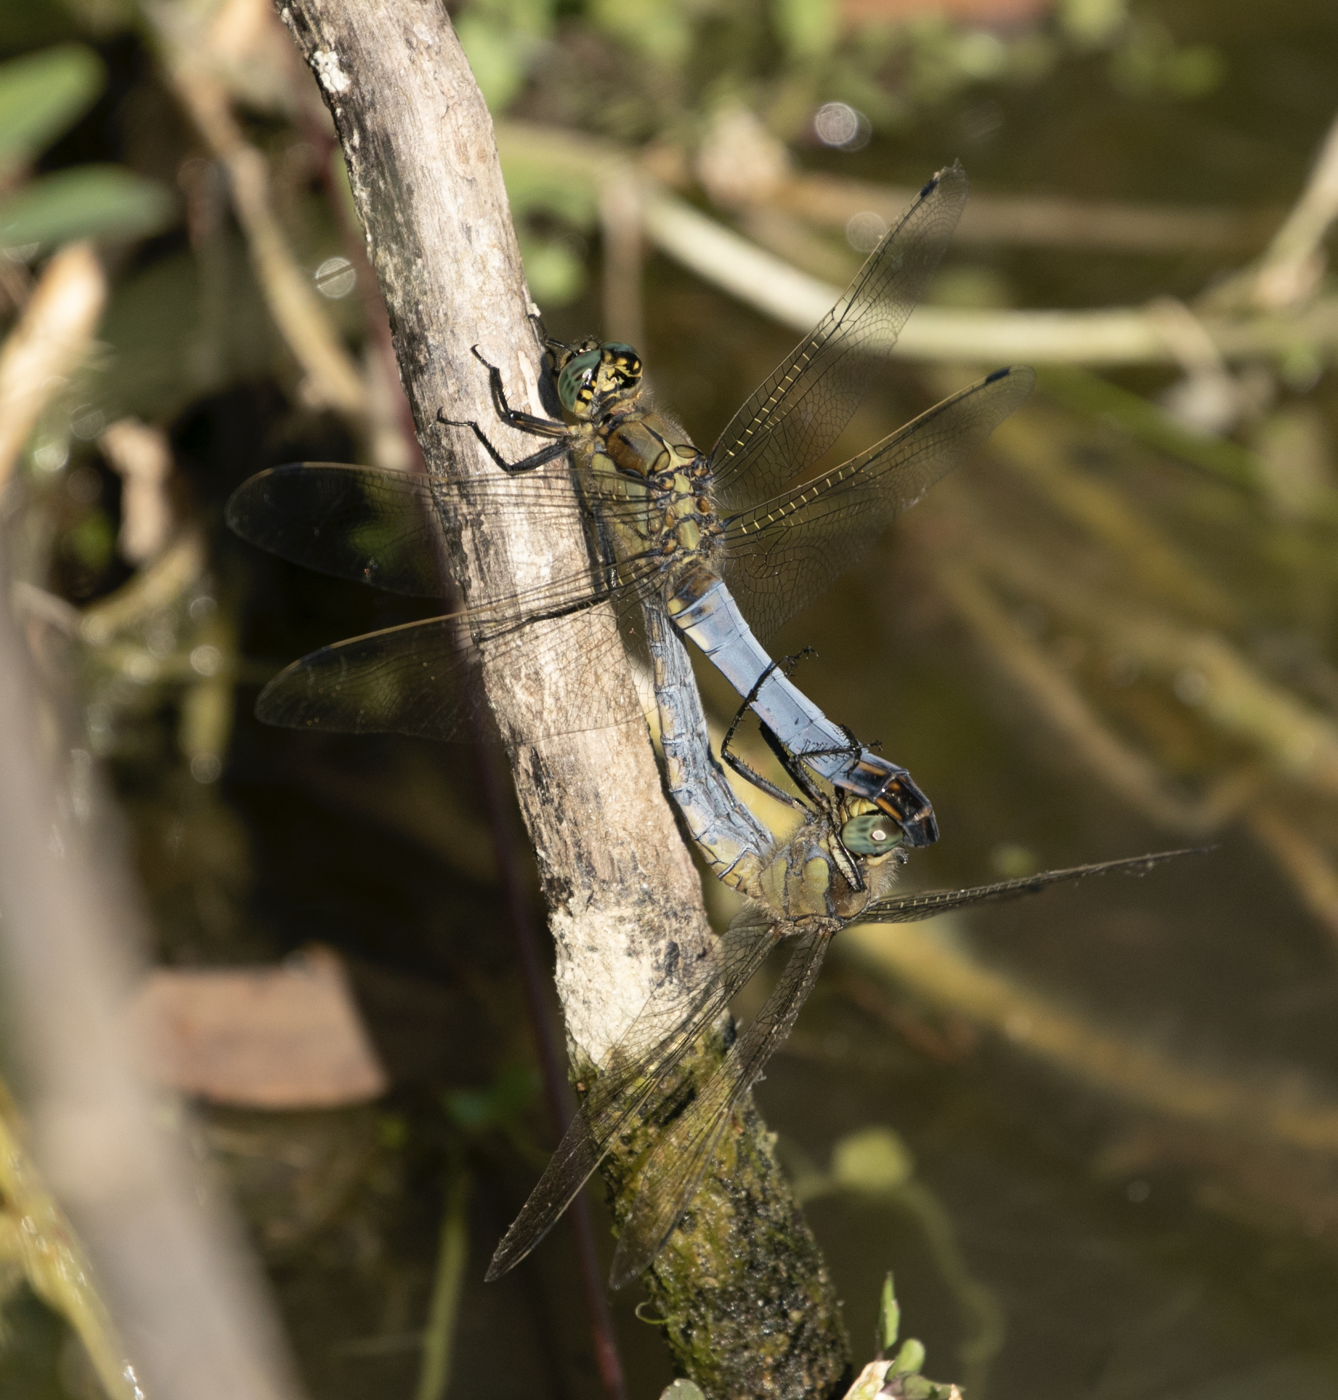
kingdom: Animalia
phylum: Arthropoda
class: Insecta
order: Odonata
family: Libellulidae
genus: Orthetrum
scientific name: Orthetrum cancellatum
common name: Black-tailed skimmer
